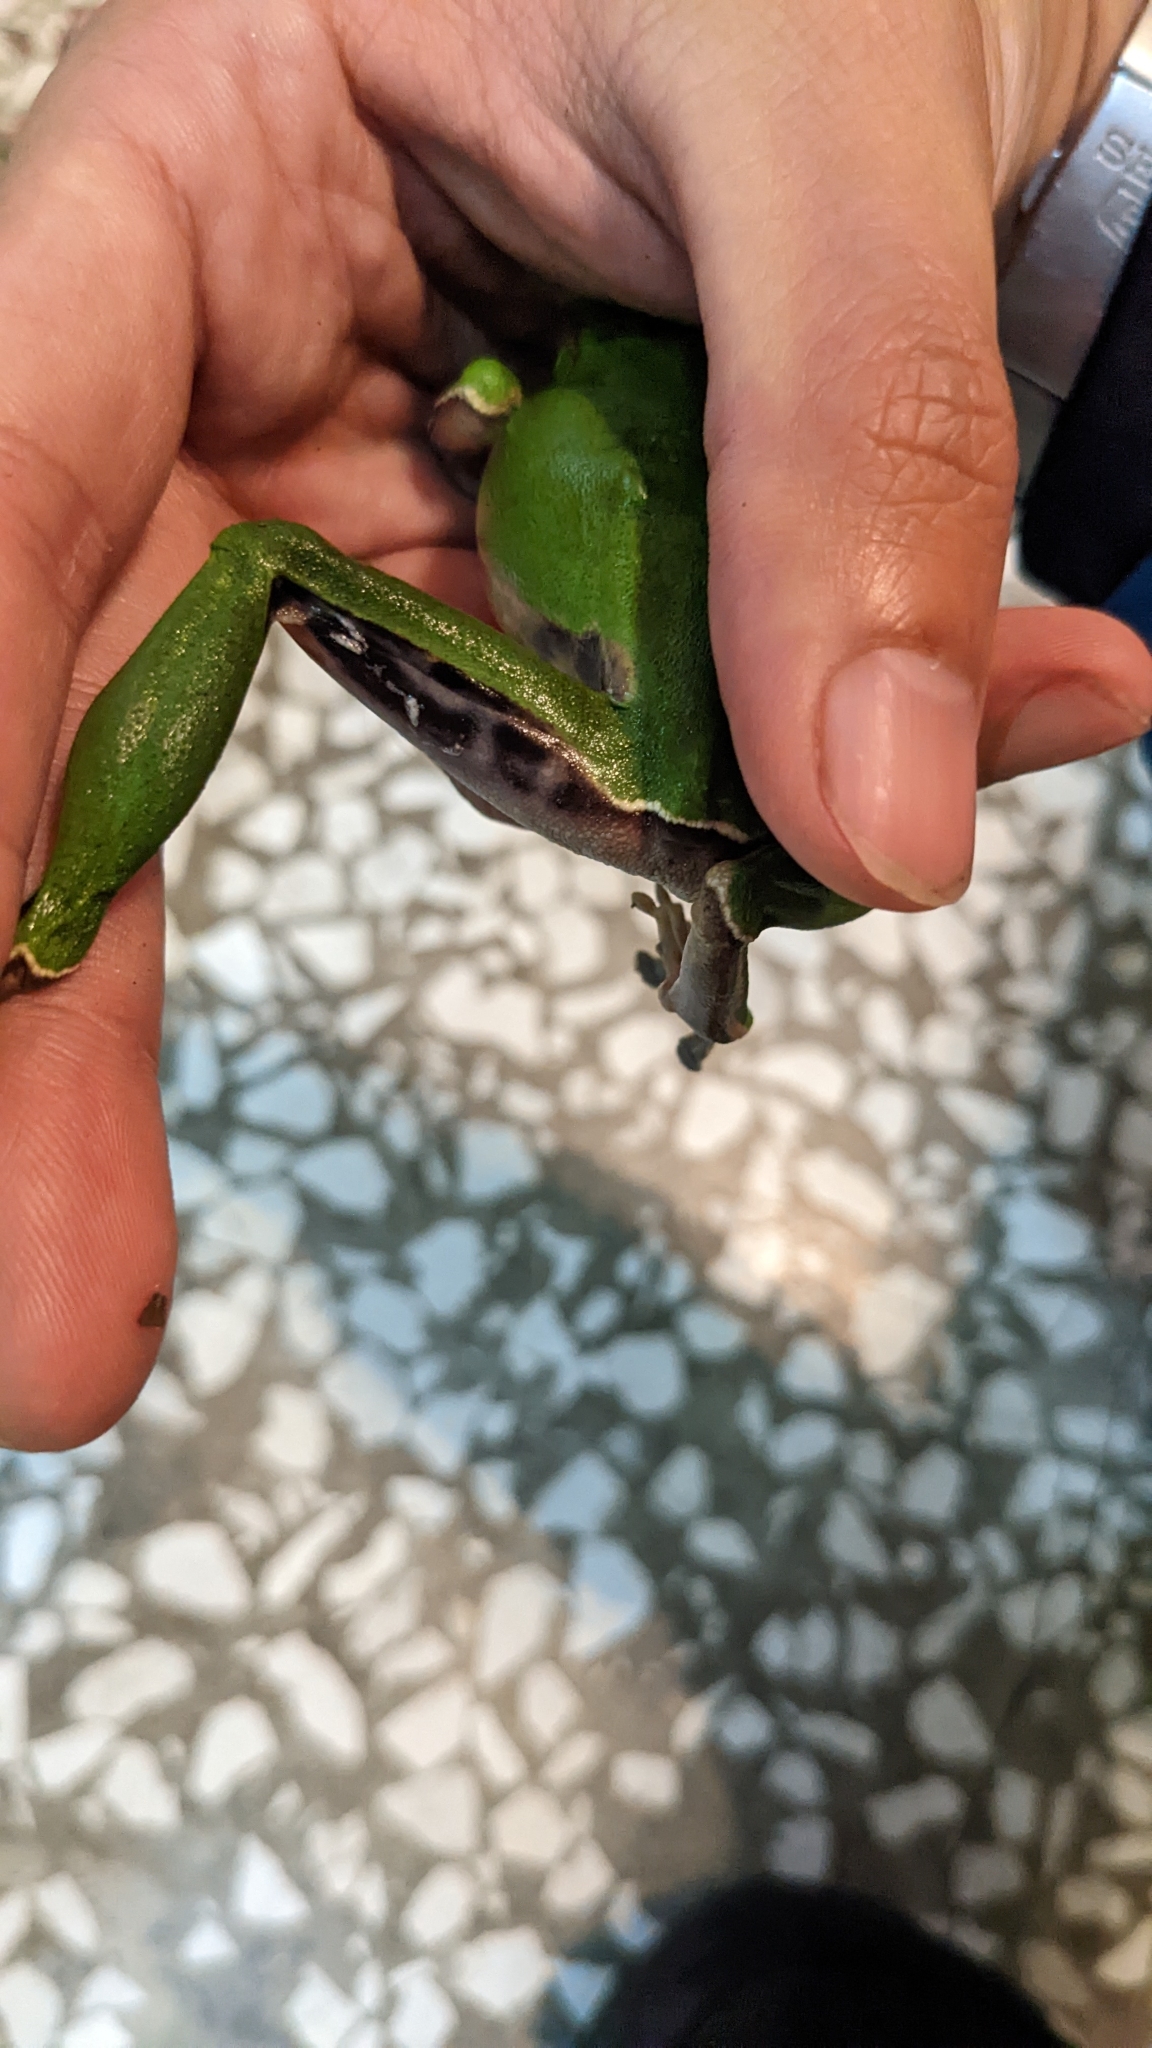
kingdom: Animalia
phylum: Chordata
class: Amphibia
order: Anura
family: Rhacophoridae
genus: Zhangixalus
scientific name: Zhangixalus prasinatus
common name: Tributary flying frog
